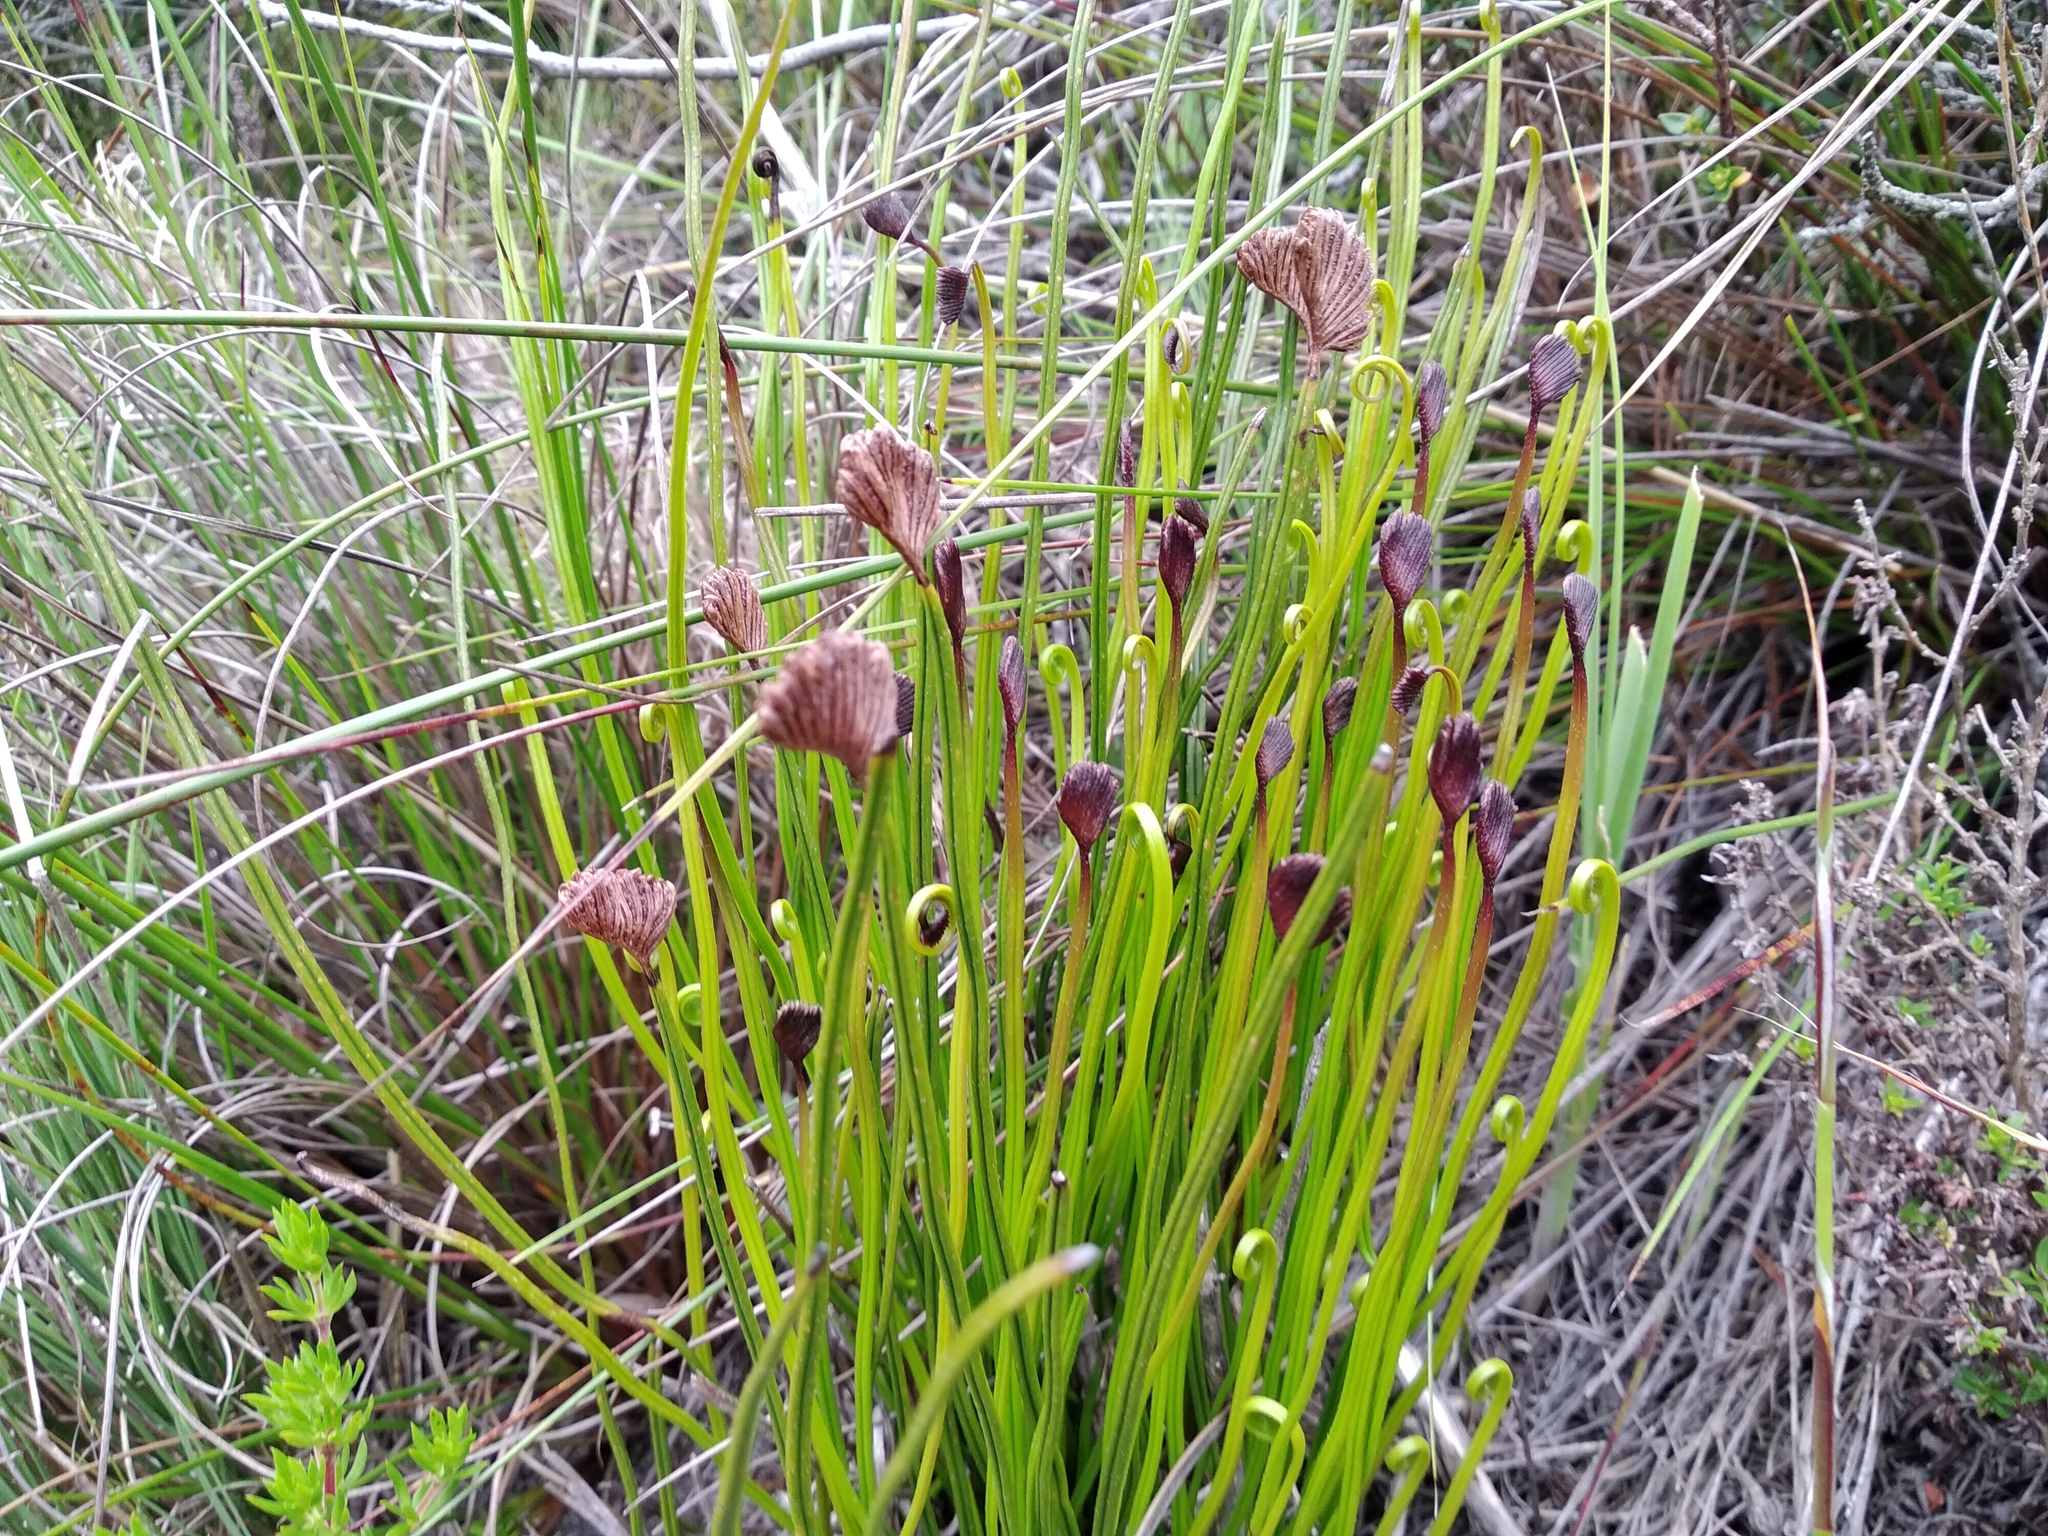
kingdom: Plantae
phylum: Tracheophyta
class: Polypodiopsida
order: Schizaeales
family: Schizaeaceae
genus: Schizaea
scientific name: Schizaea pectinata
